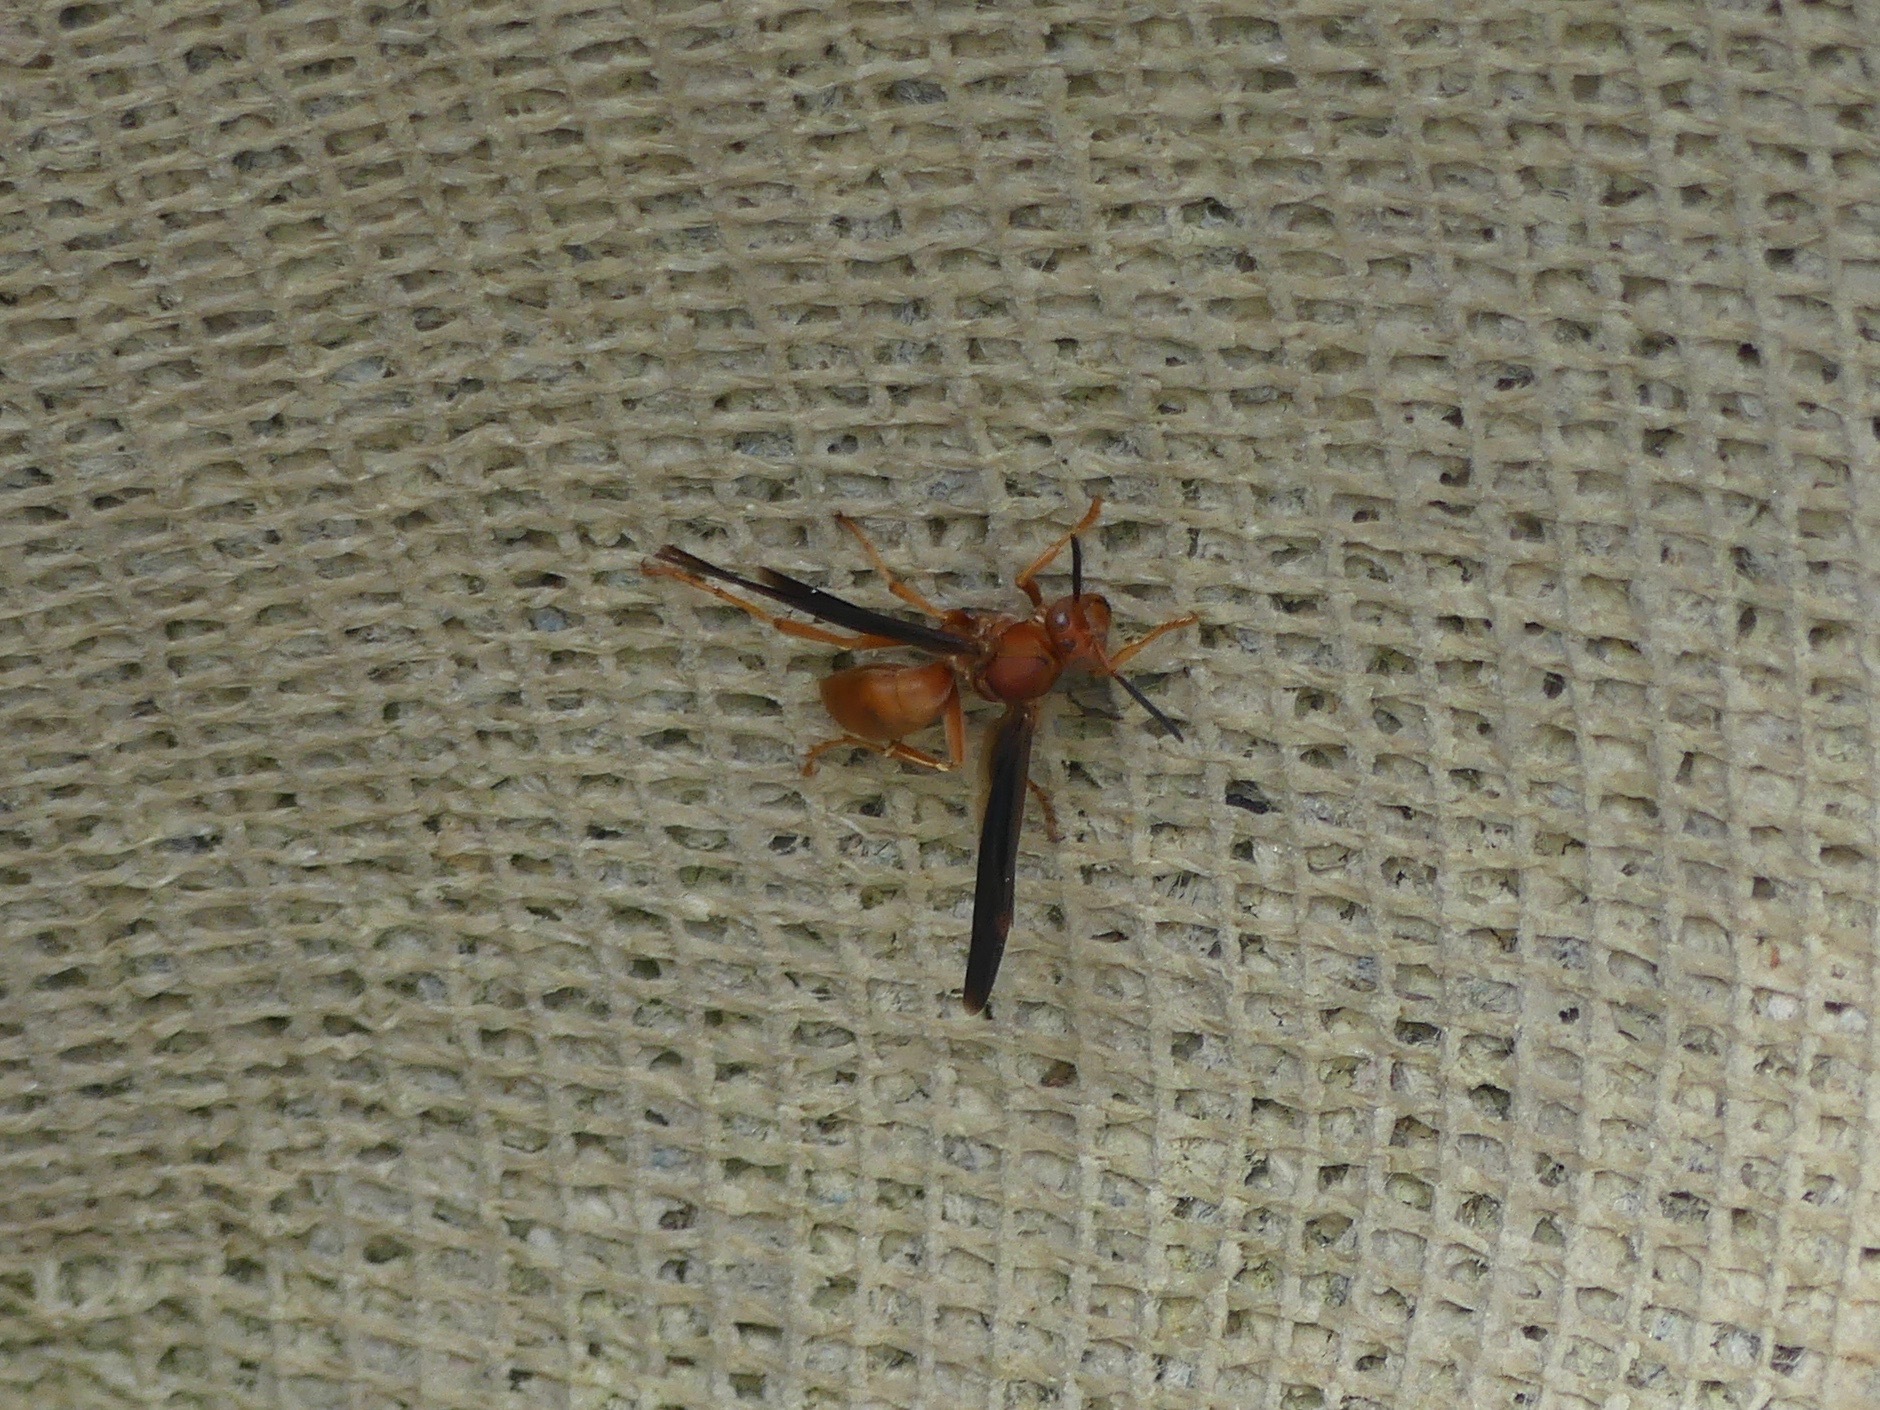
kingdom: Animalia
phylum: Arthropoda
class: Insecta
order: Hymenoptera
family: Vespidae
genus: Fuscopolistes
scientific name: Fuscopolistes
